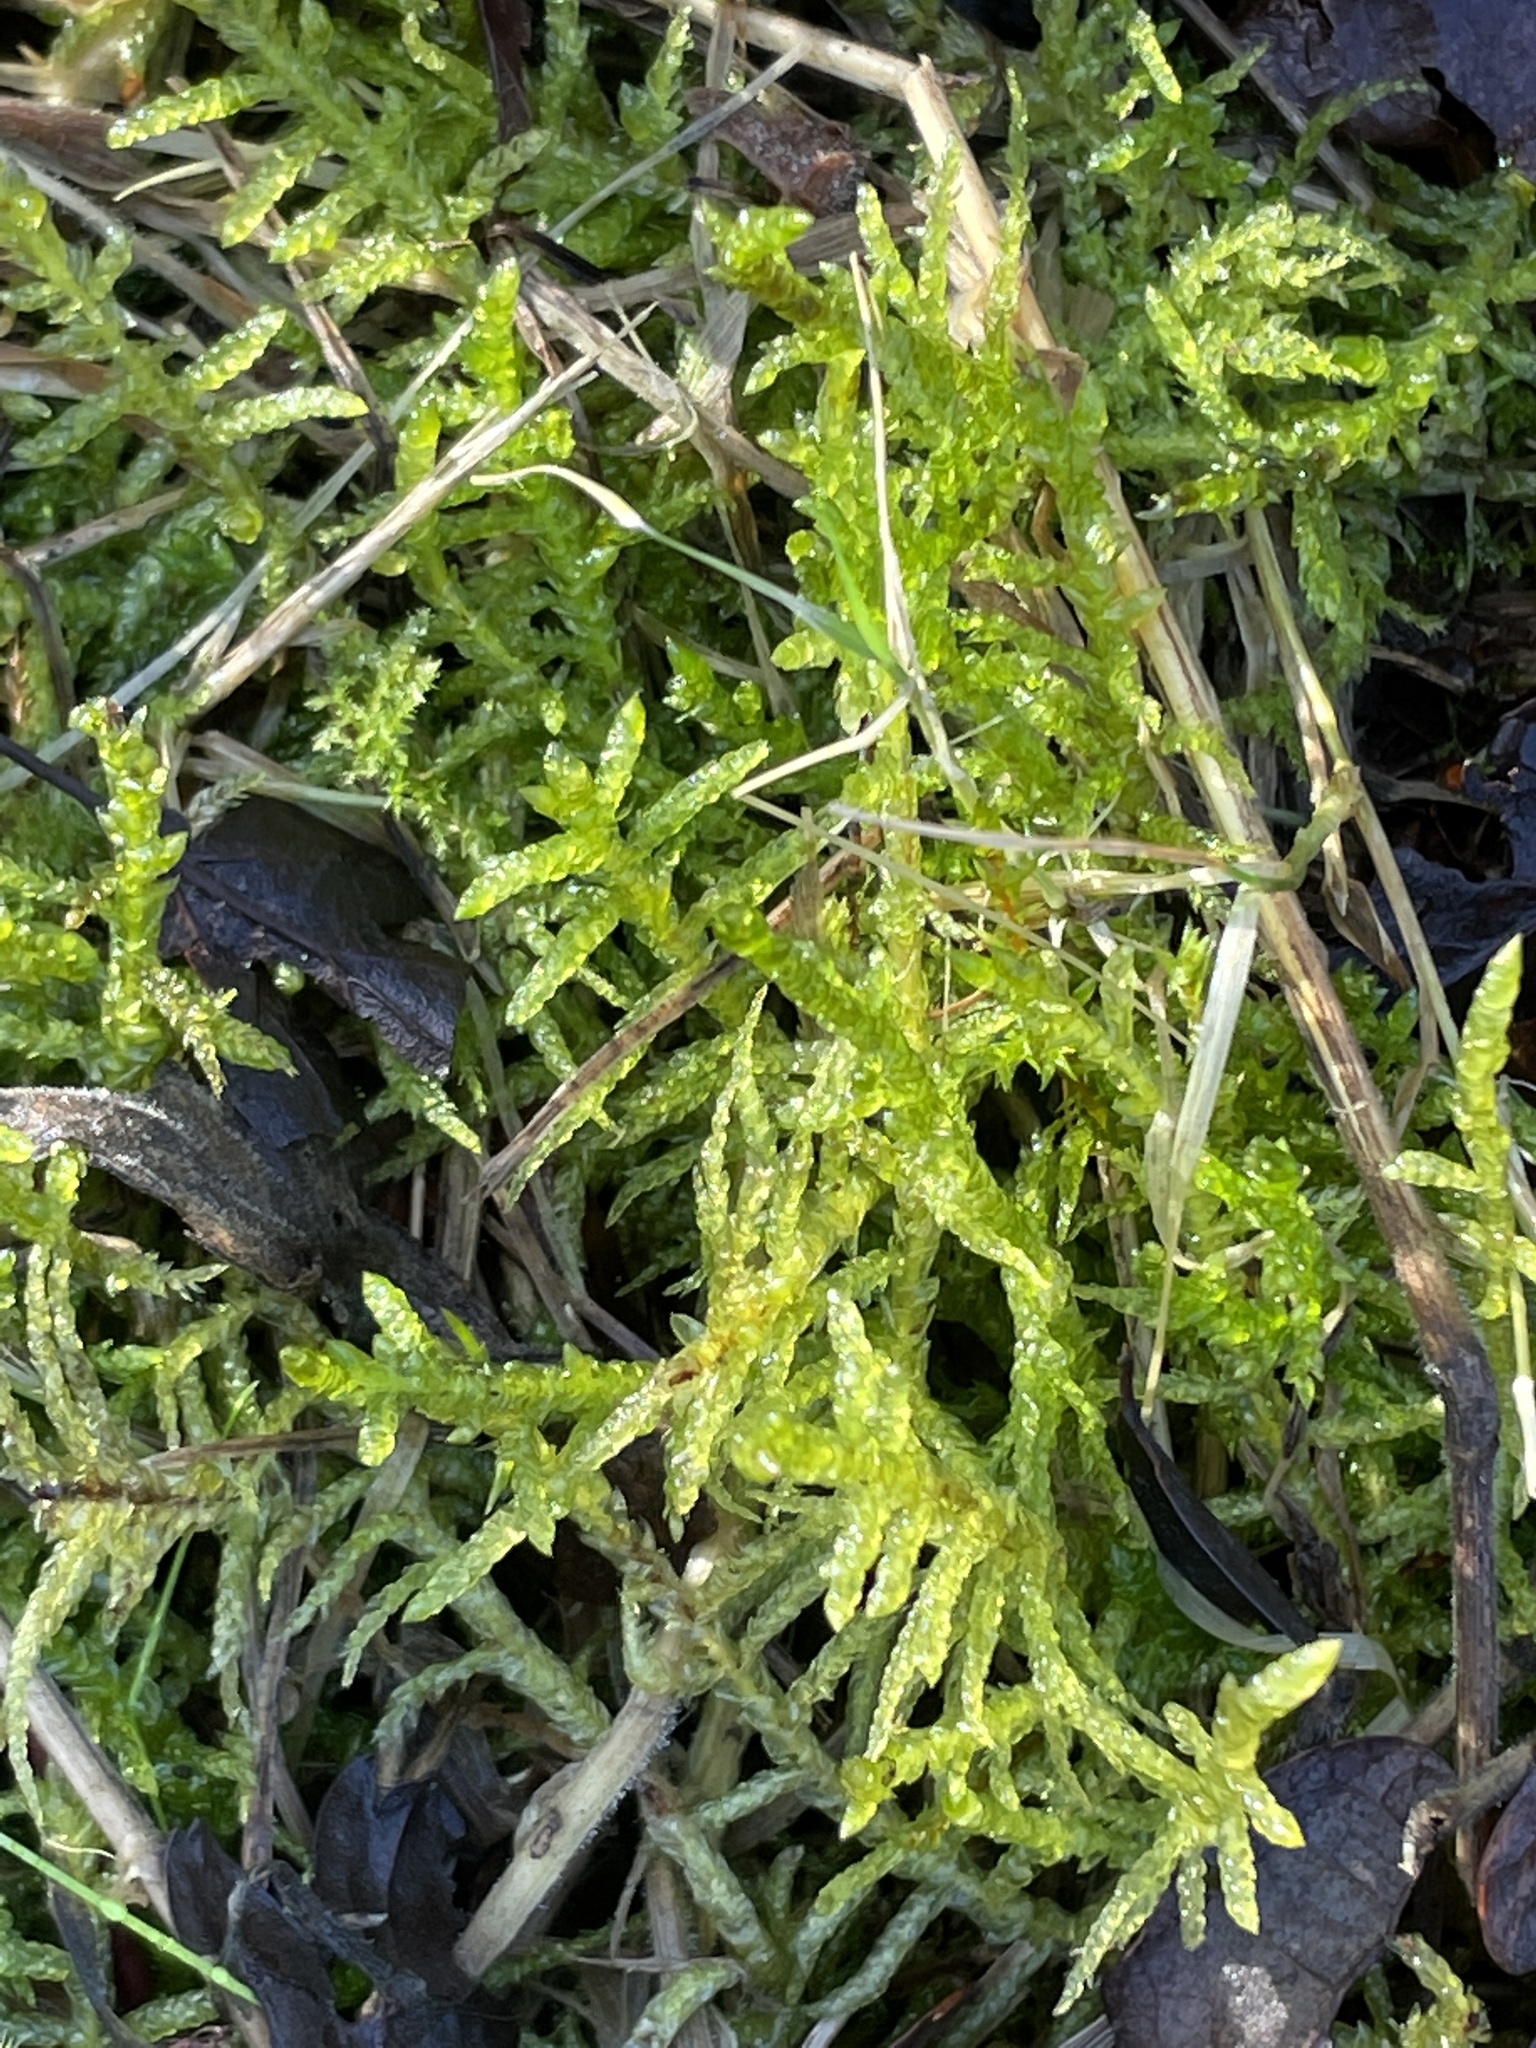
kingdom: Plantae
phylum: Bryophyta
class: Bryopsida
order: Hypnales
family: Brachytheciaceae
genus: Pseudoscleropodium
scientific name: Pseudoscleropodium purum
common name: Neat feather-moss
